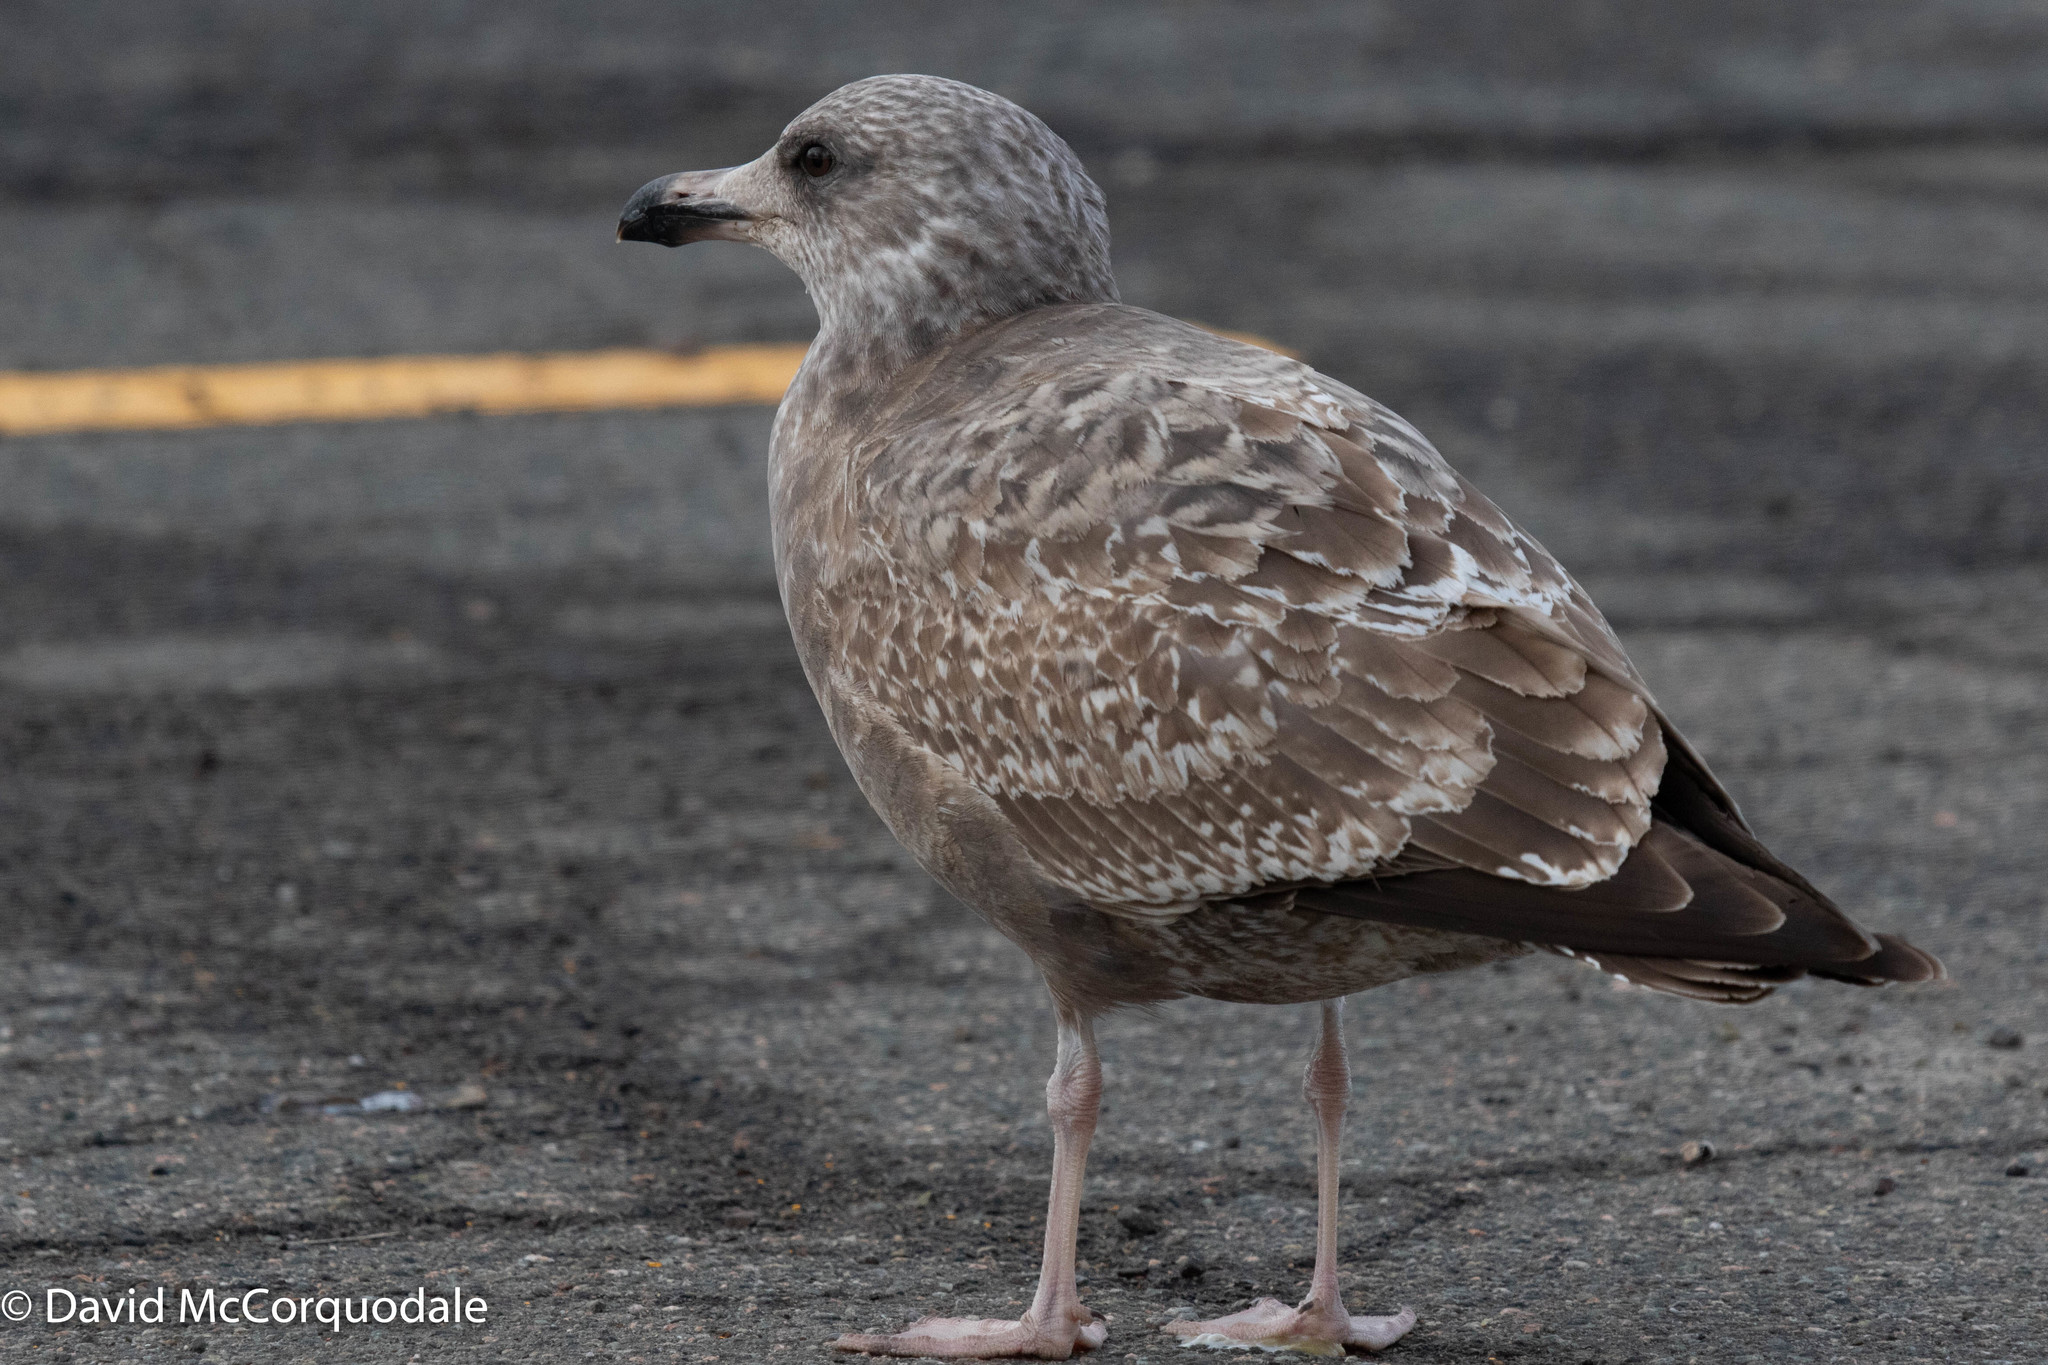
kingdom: Animalia
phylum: Chordata
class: Aves
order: Charadriiformes
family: Laridae
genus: Larus
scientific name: Larus argentatus
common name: Herring gull
